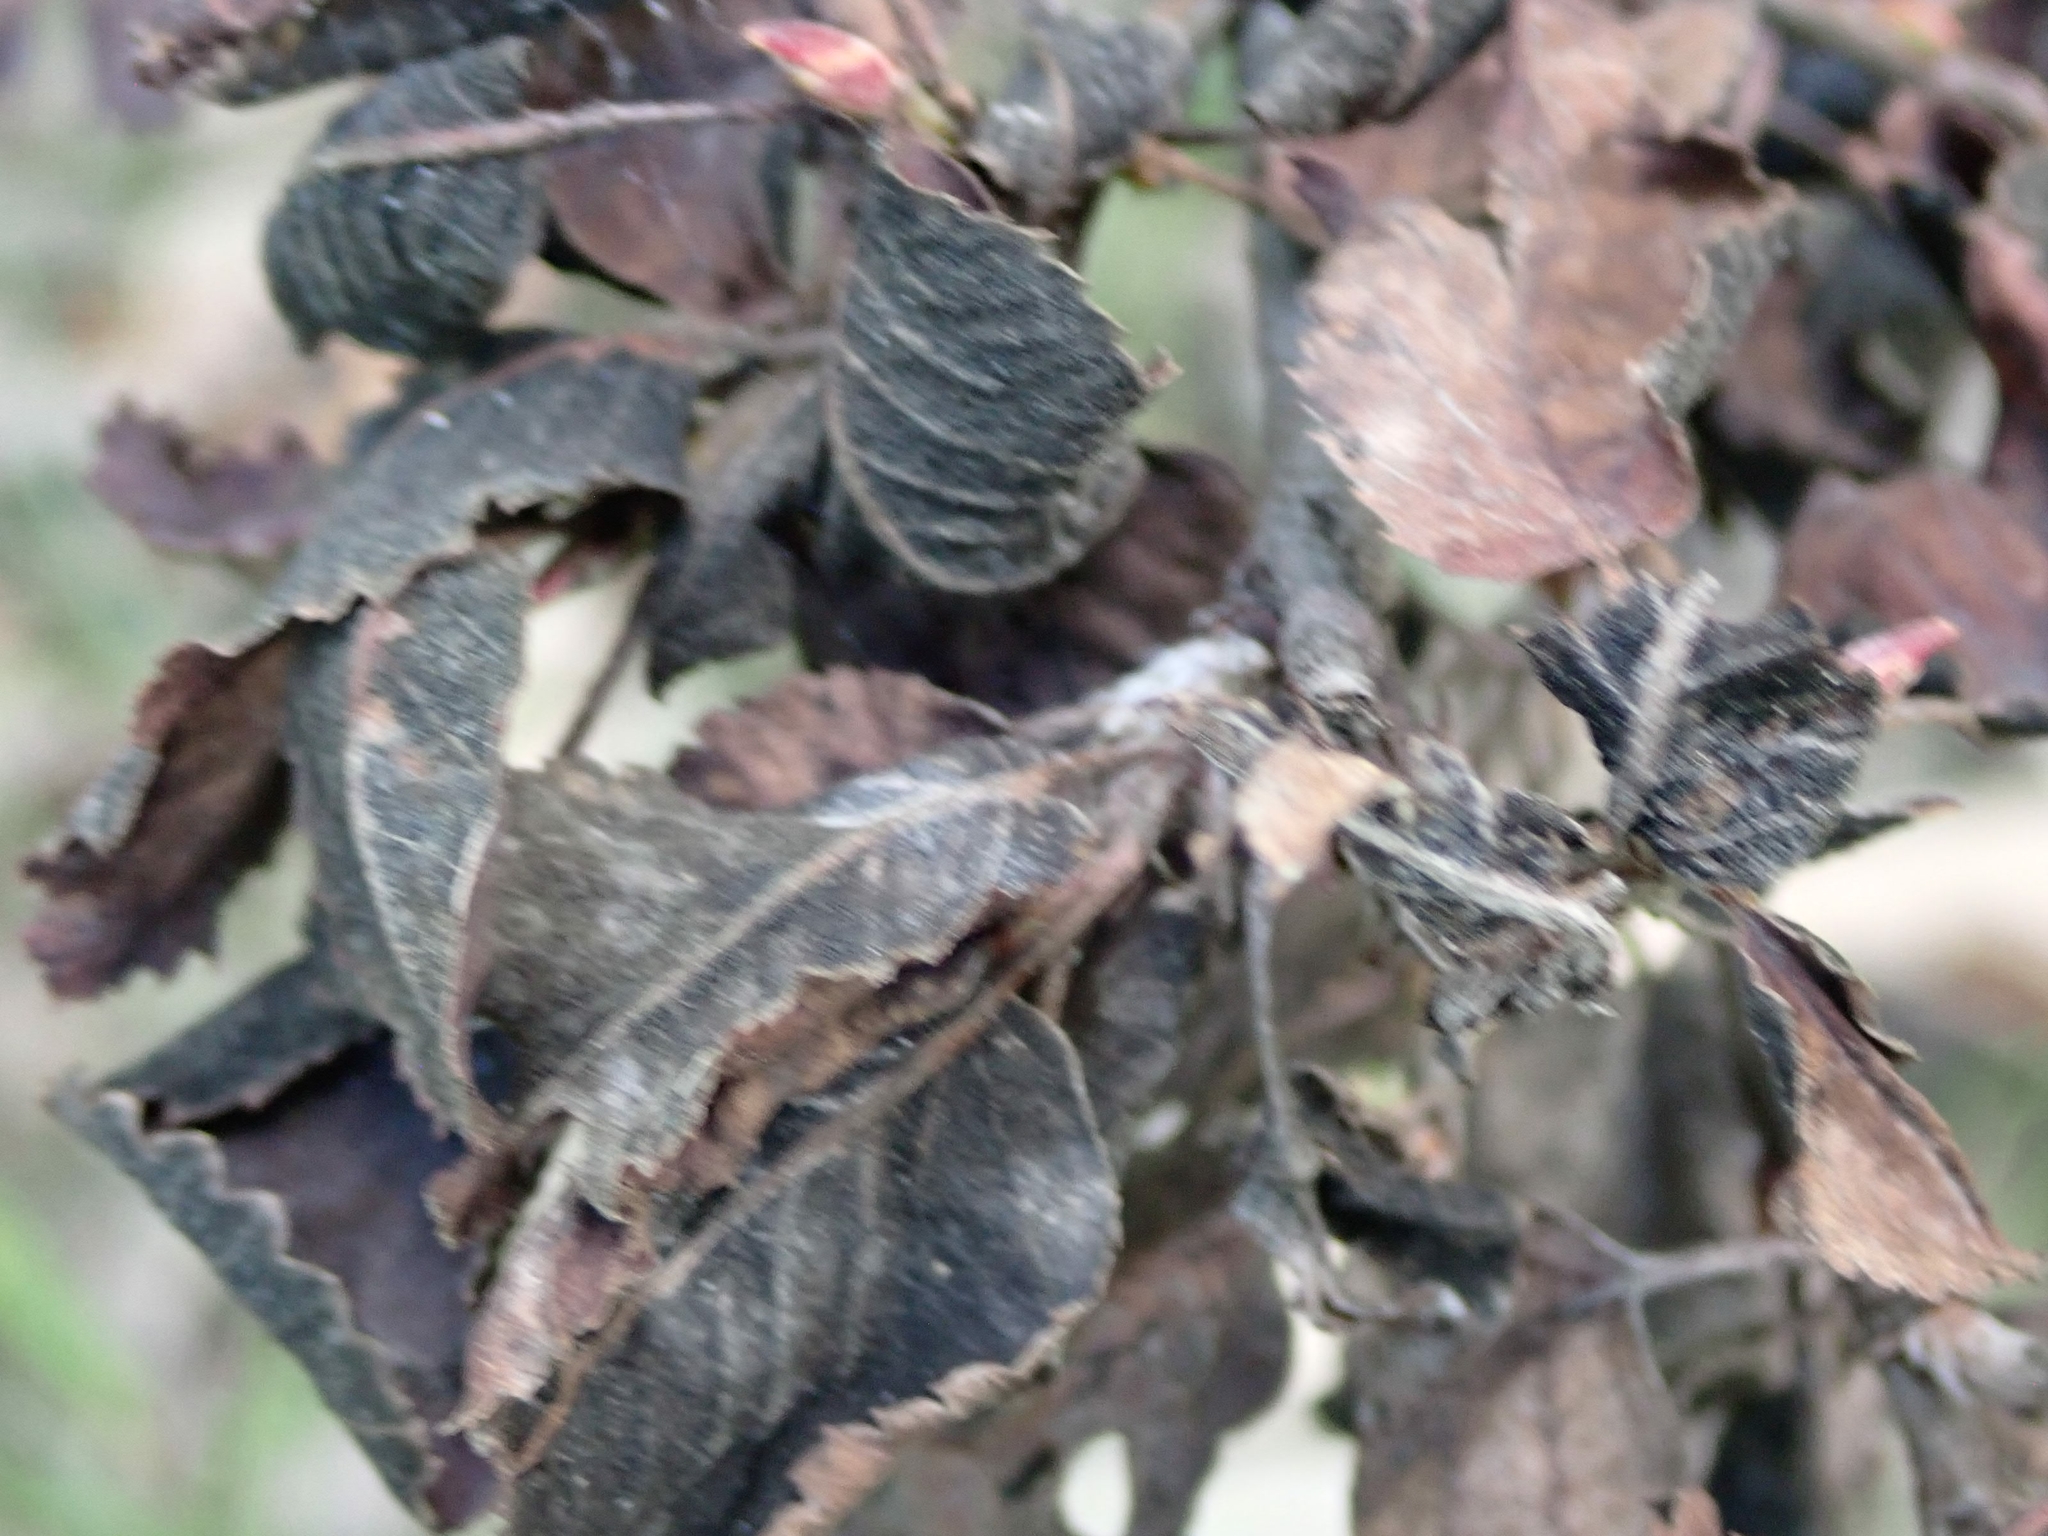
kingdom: Fungi
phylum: Ascomycota
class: Dothideomycetes
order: Venturiales
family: Venturiaceae
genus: Apiosporina
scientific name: Apiosporina collinsii
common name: Black leaf
